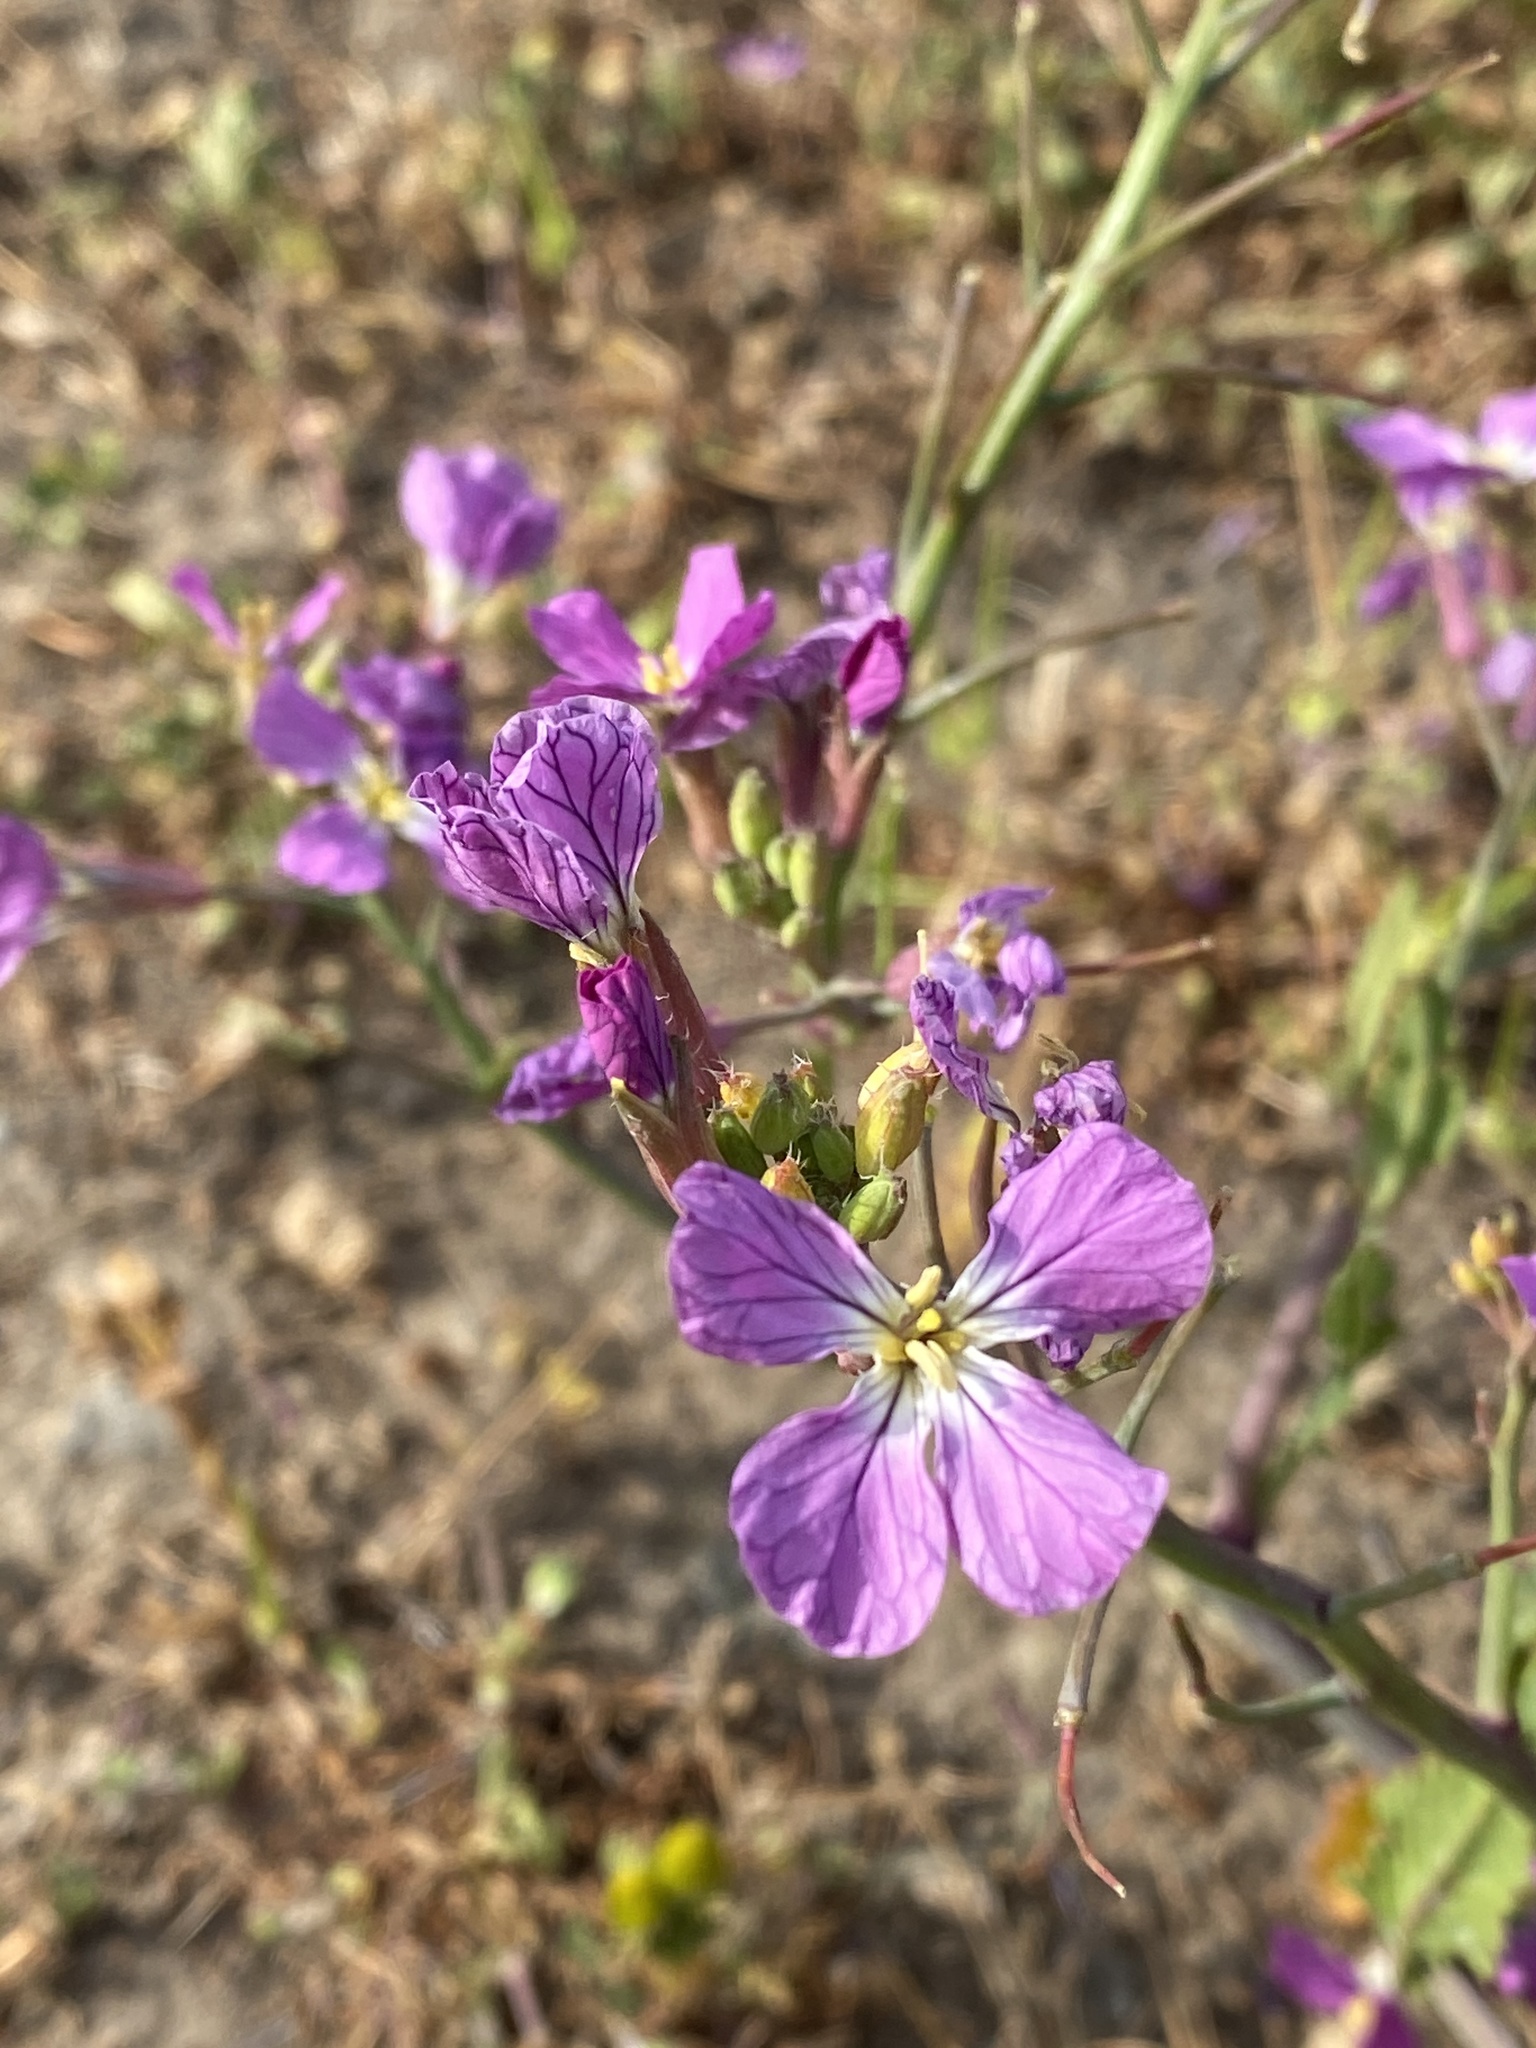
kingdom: Plantae
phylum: Tracheophyta
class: Magnoliopsida
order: Brassicales
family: Brassicaceae
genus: Raphanus
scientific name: Raphanus sativus
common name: Cultivated radish
